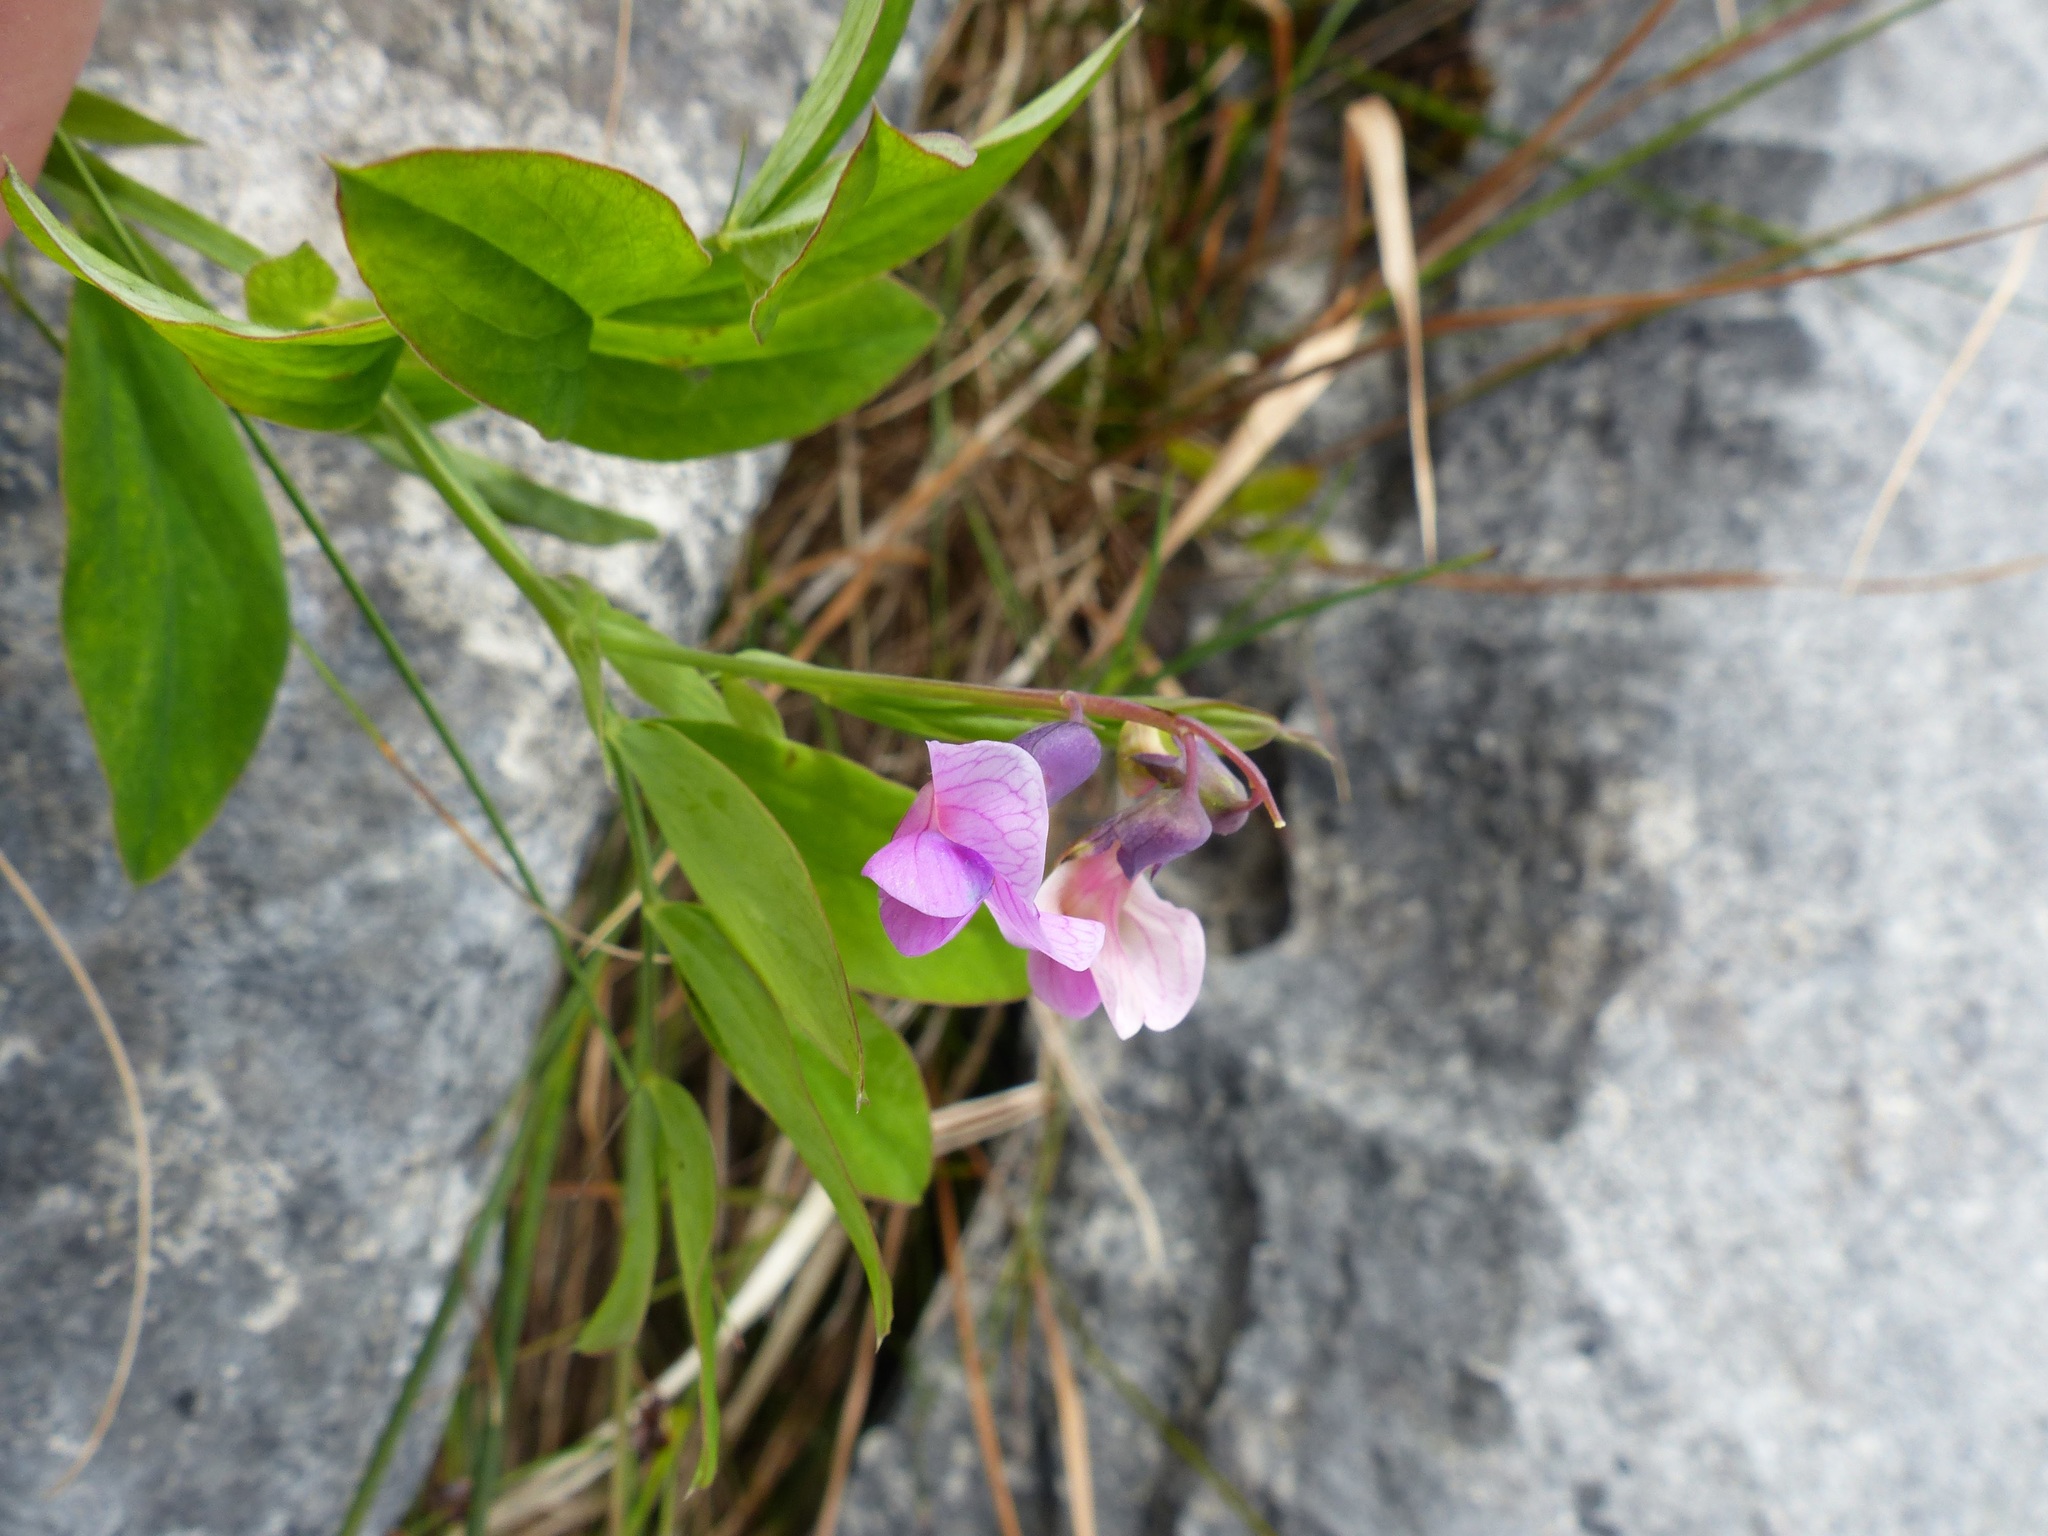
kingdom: Plantae
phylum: Tracheophyta
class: Magnoliopsida
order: Fabales
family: Fabaceae
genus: Lathyrus
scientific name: Lathyrus linifolius
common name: Bitter-vetch
